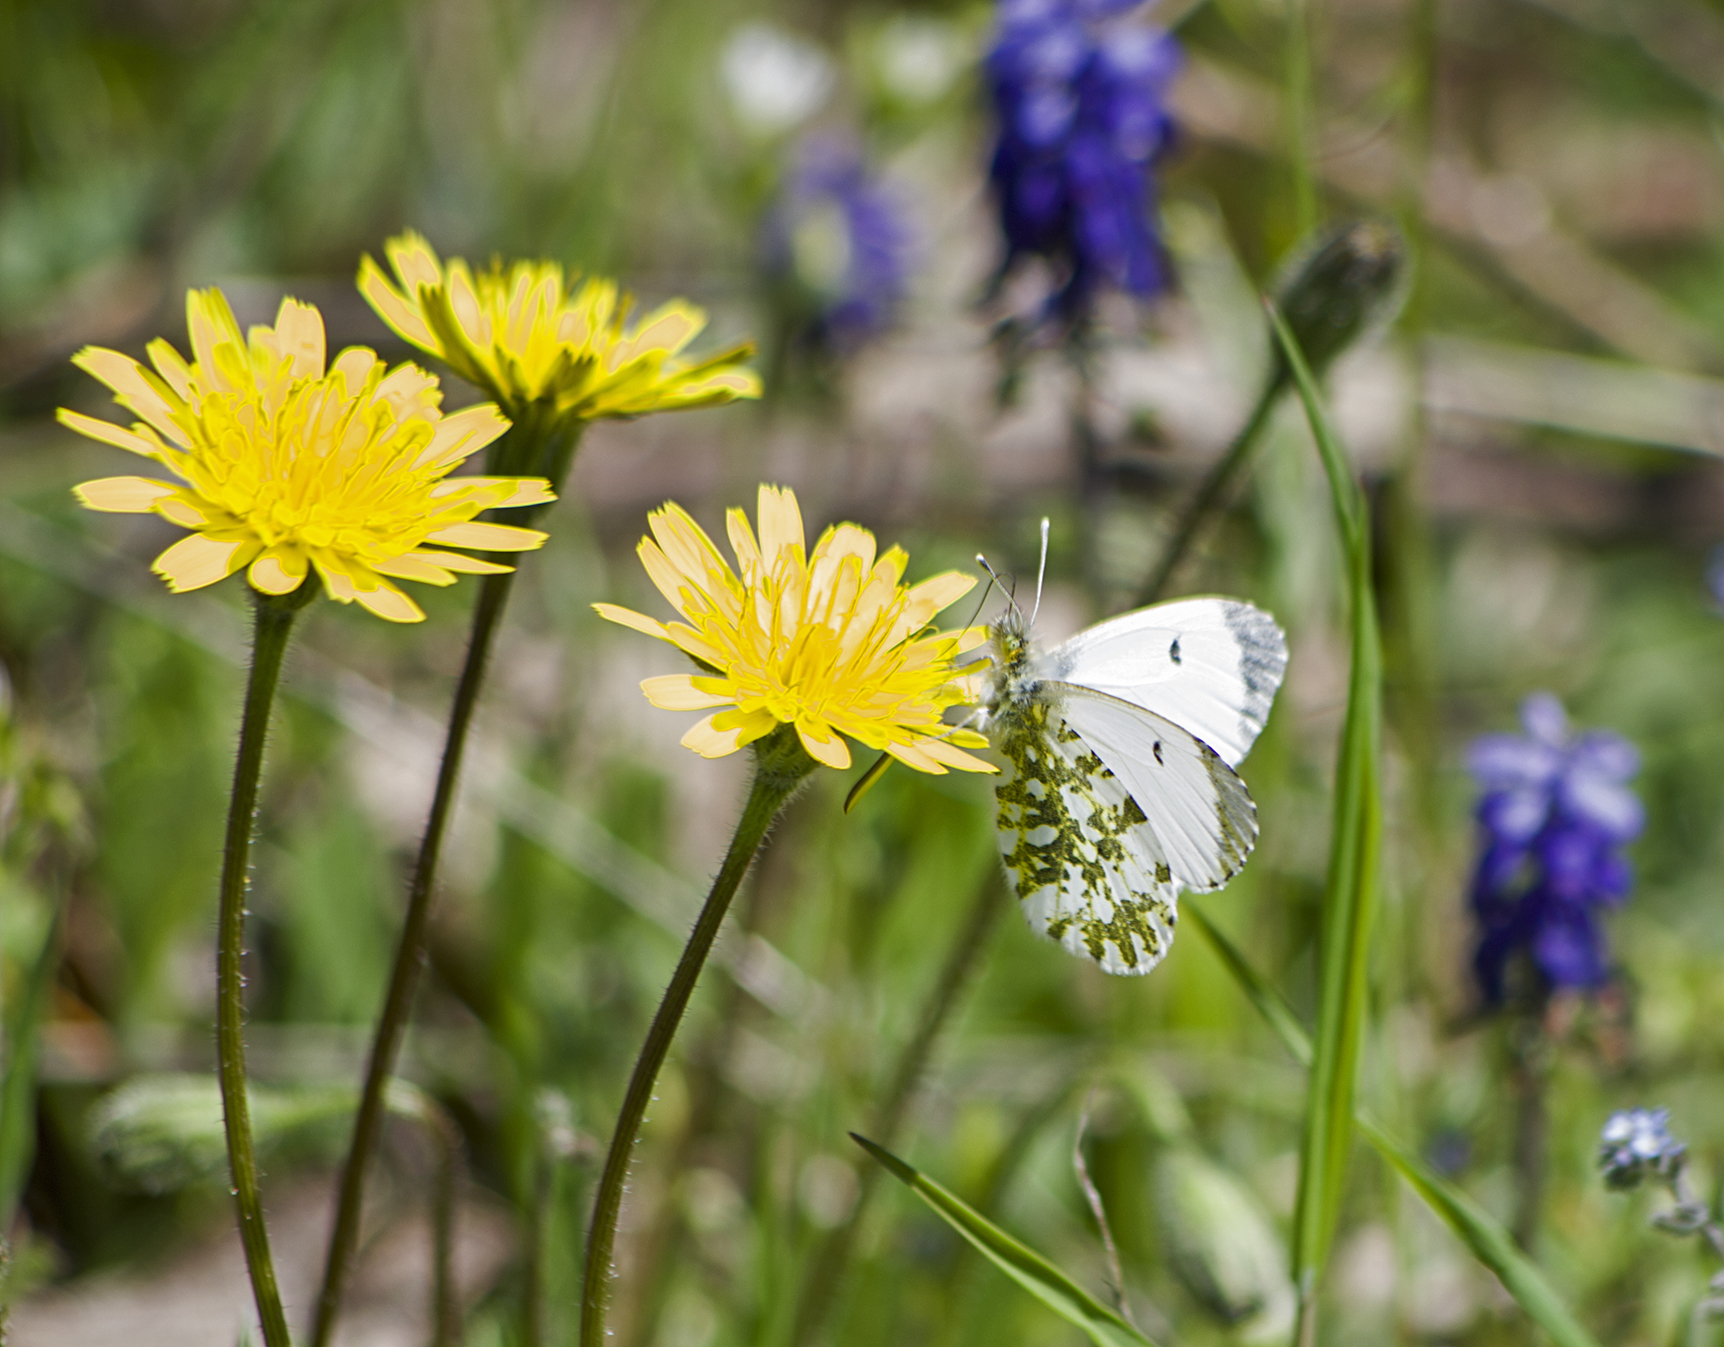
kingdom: Animalia
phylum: Arthropoda
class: Insecta
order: Lepidoptera
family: Pieridae
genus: Anthocharis
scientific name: Anthocharis cardamines
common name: Orange-tip
